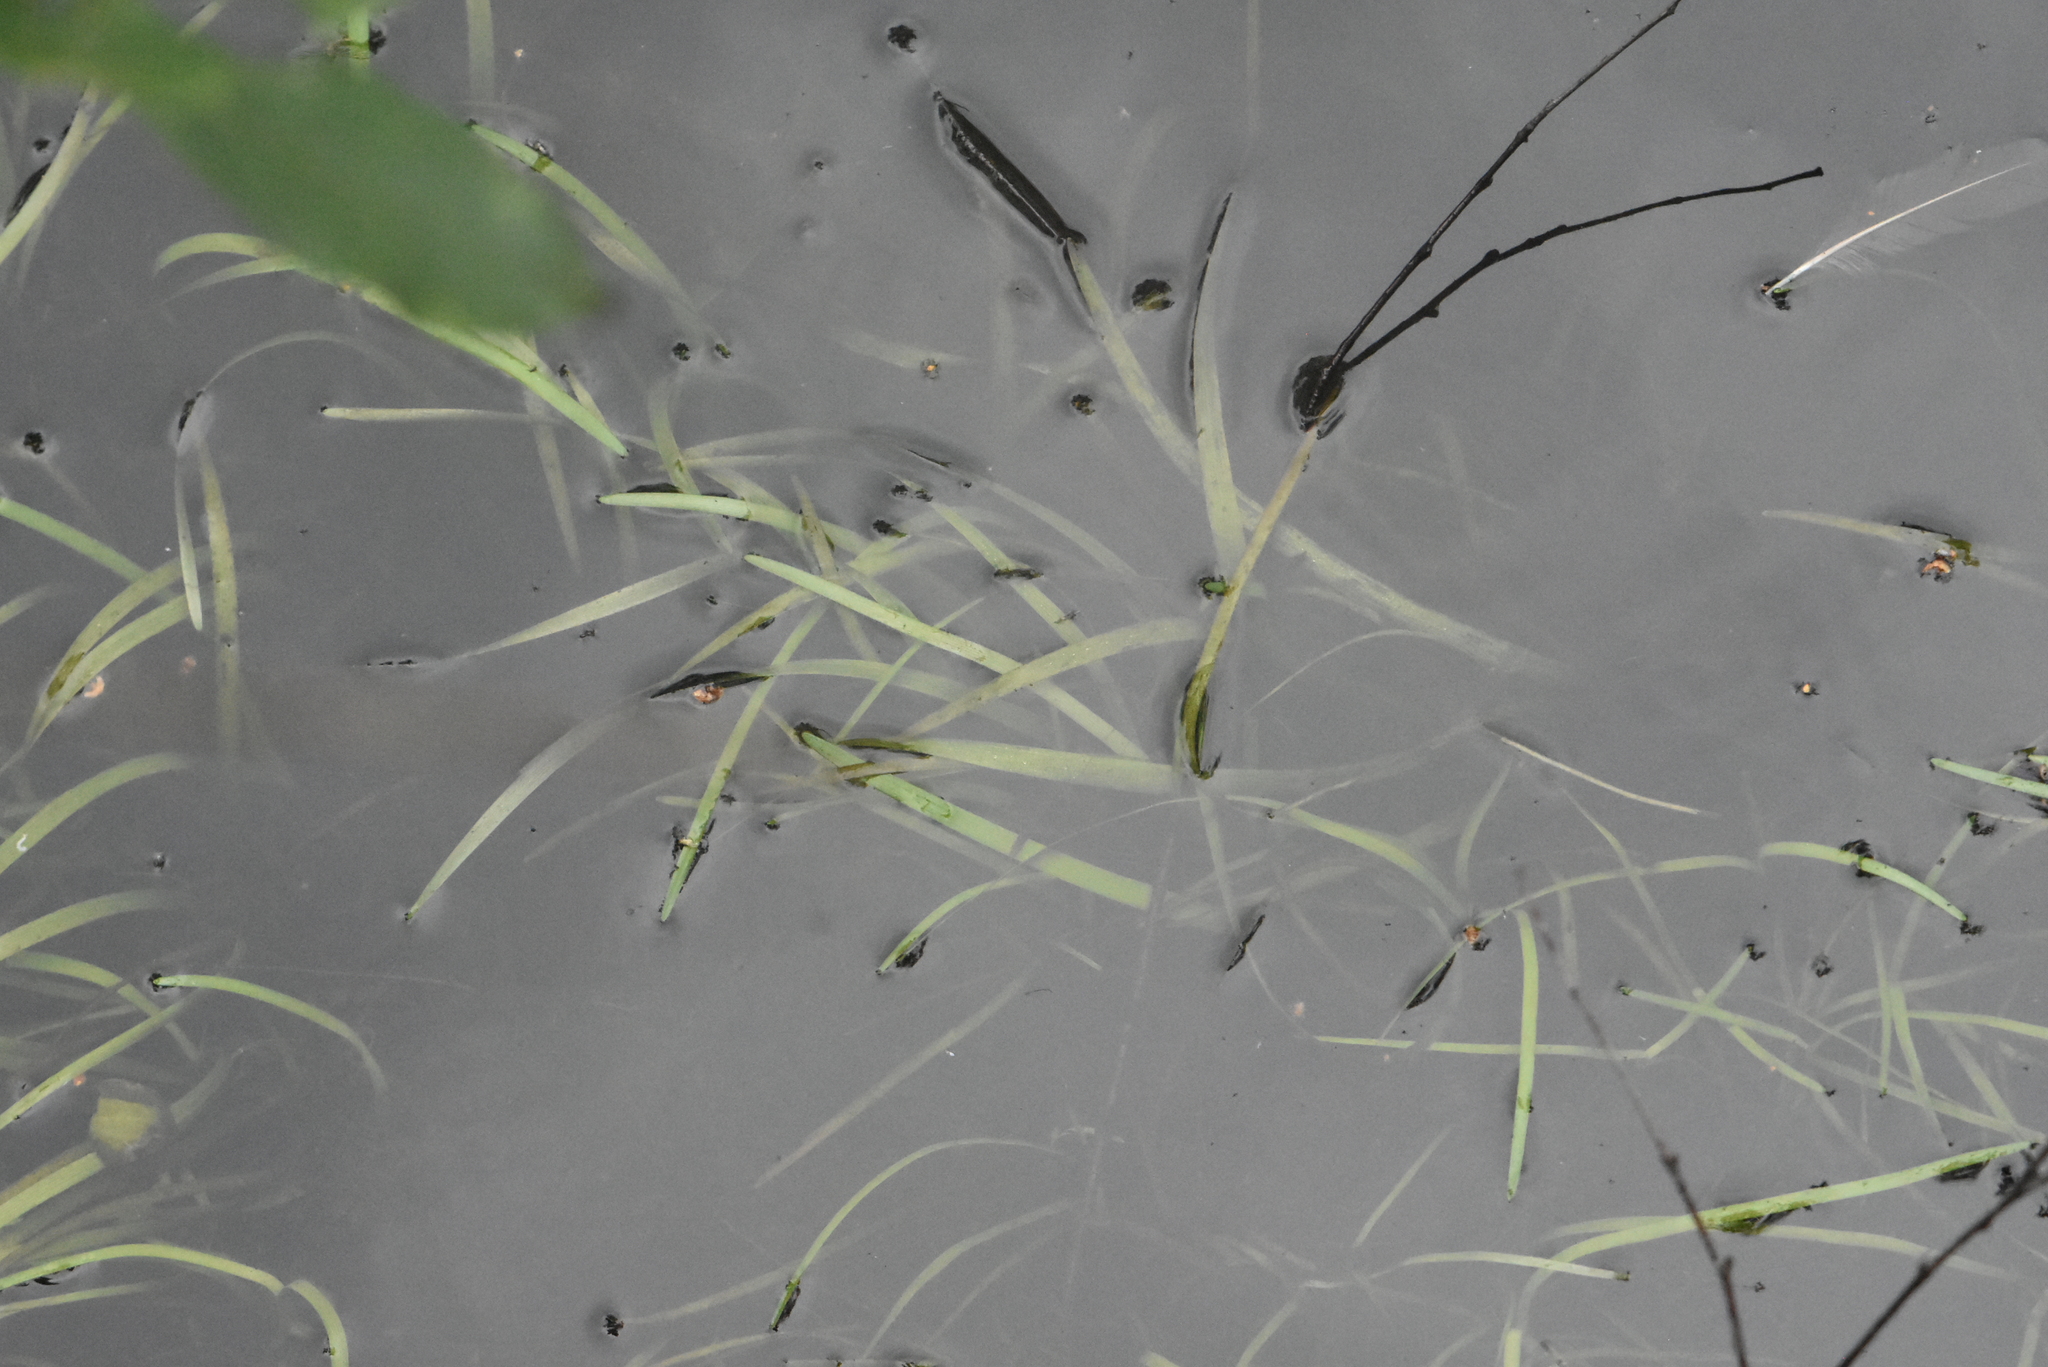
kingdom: Plantae
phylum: Tracheophyta
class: Liliopsida
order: Poales
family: Typhaceae
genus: Sparganium
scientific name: Sparganium natans
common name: Least bur-reed
